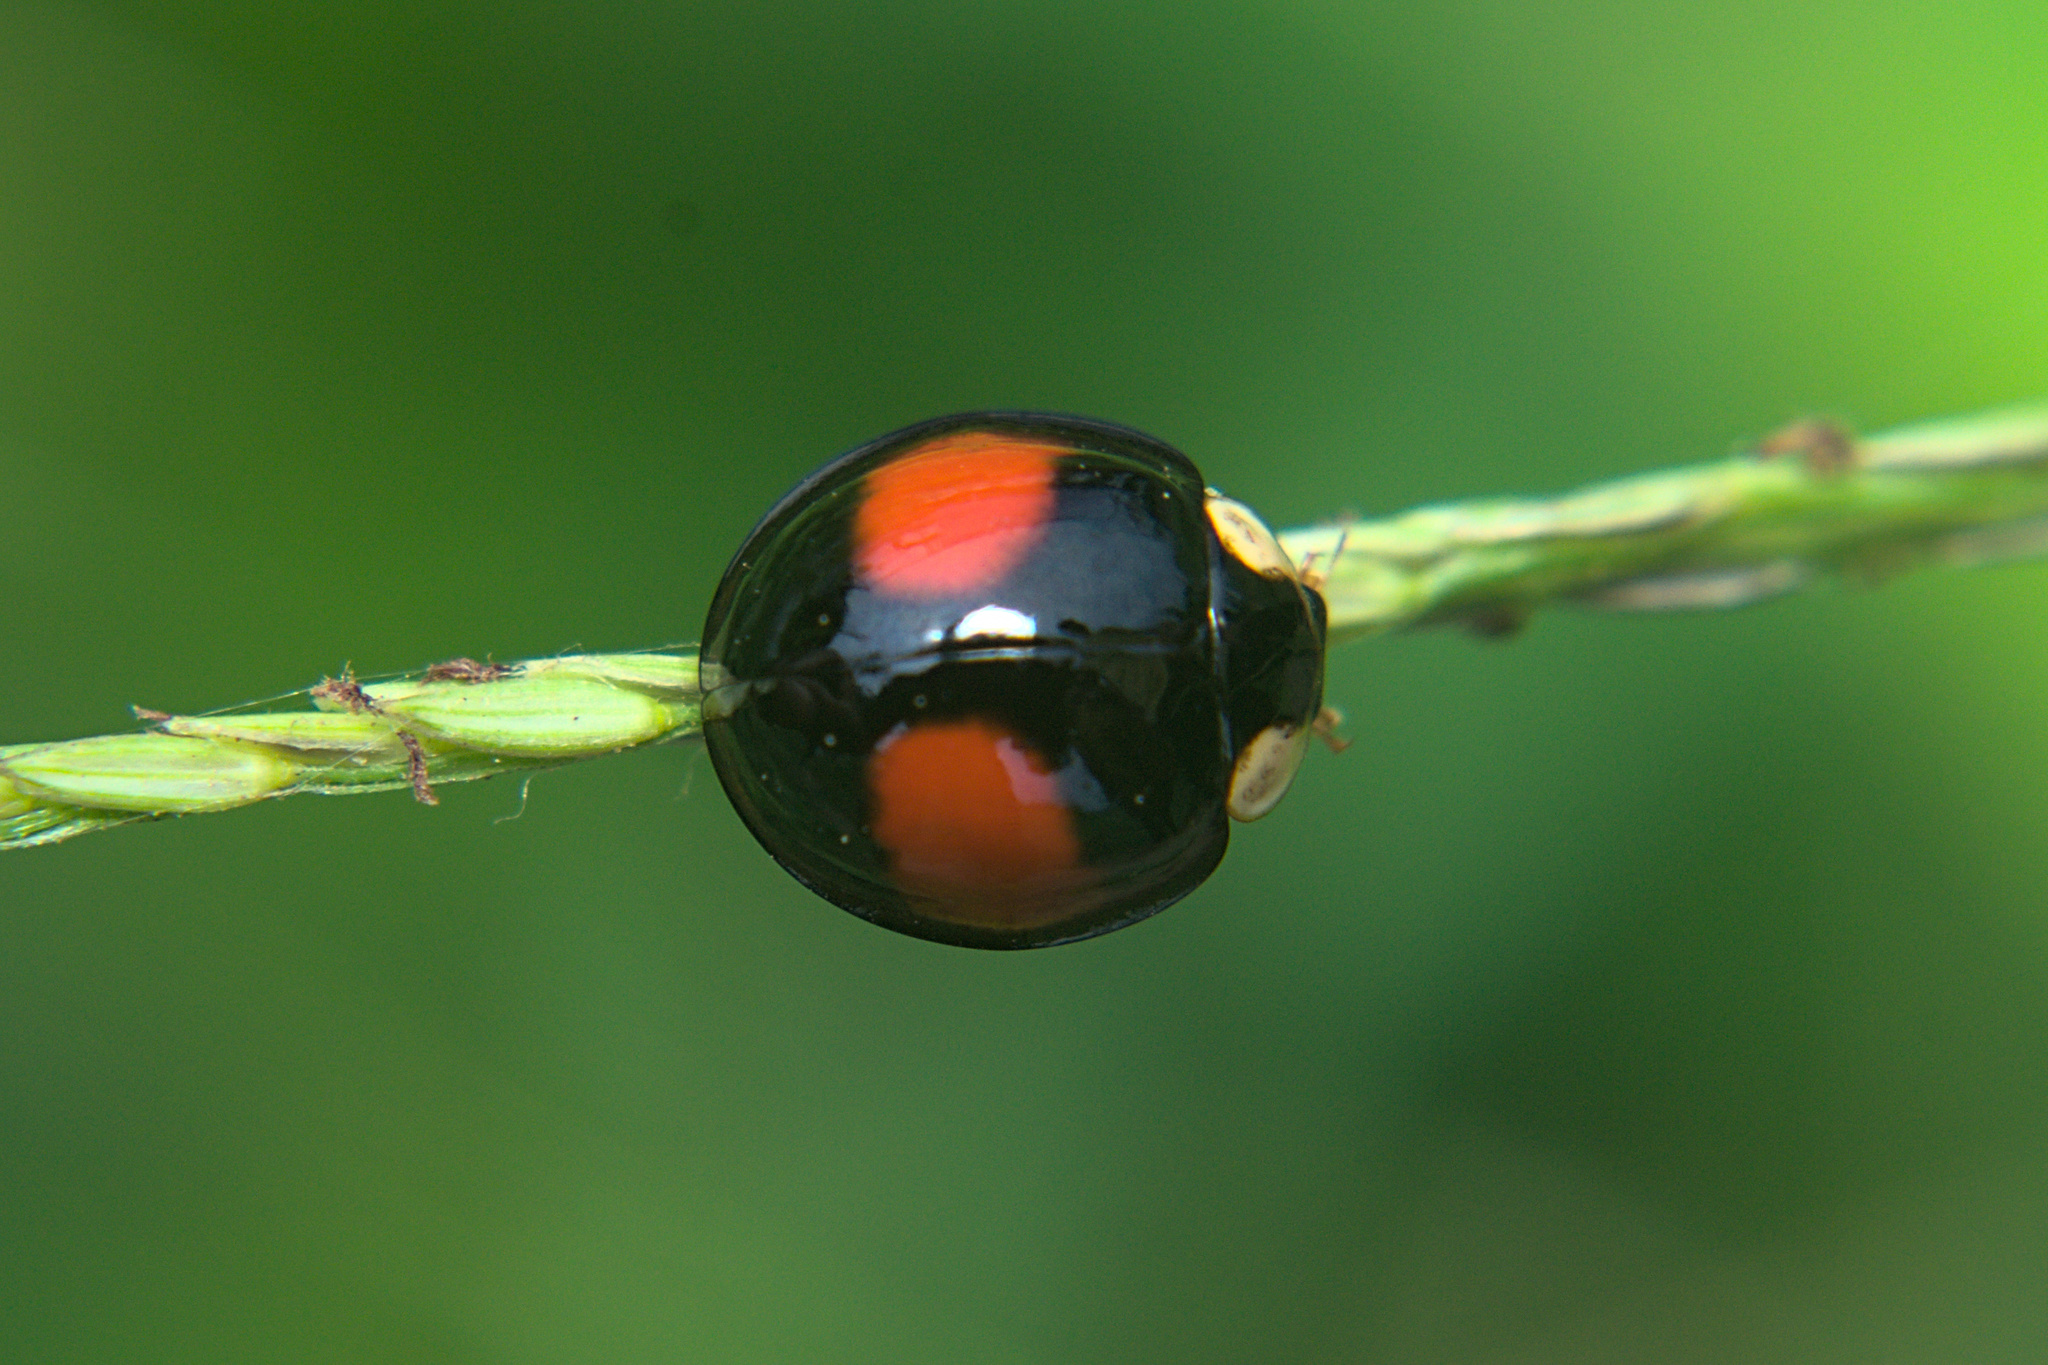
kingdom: Animalia
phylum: Arthropoda
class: Insecta
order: Coleoptera
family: Coccinellidae
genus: Coelophora
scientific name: Coelophora saucia
